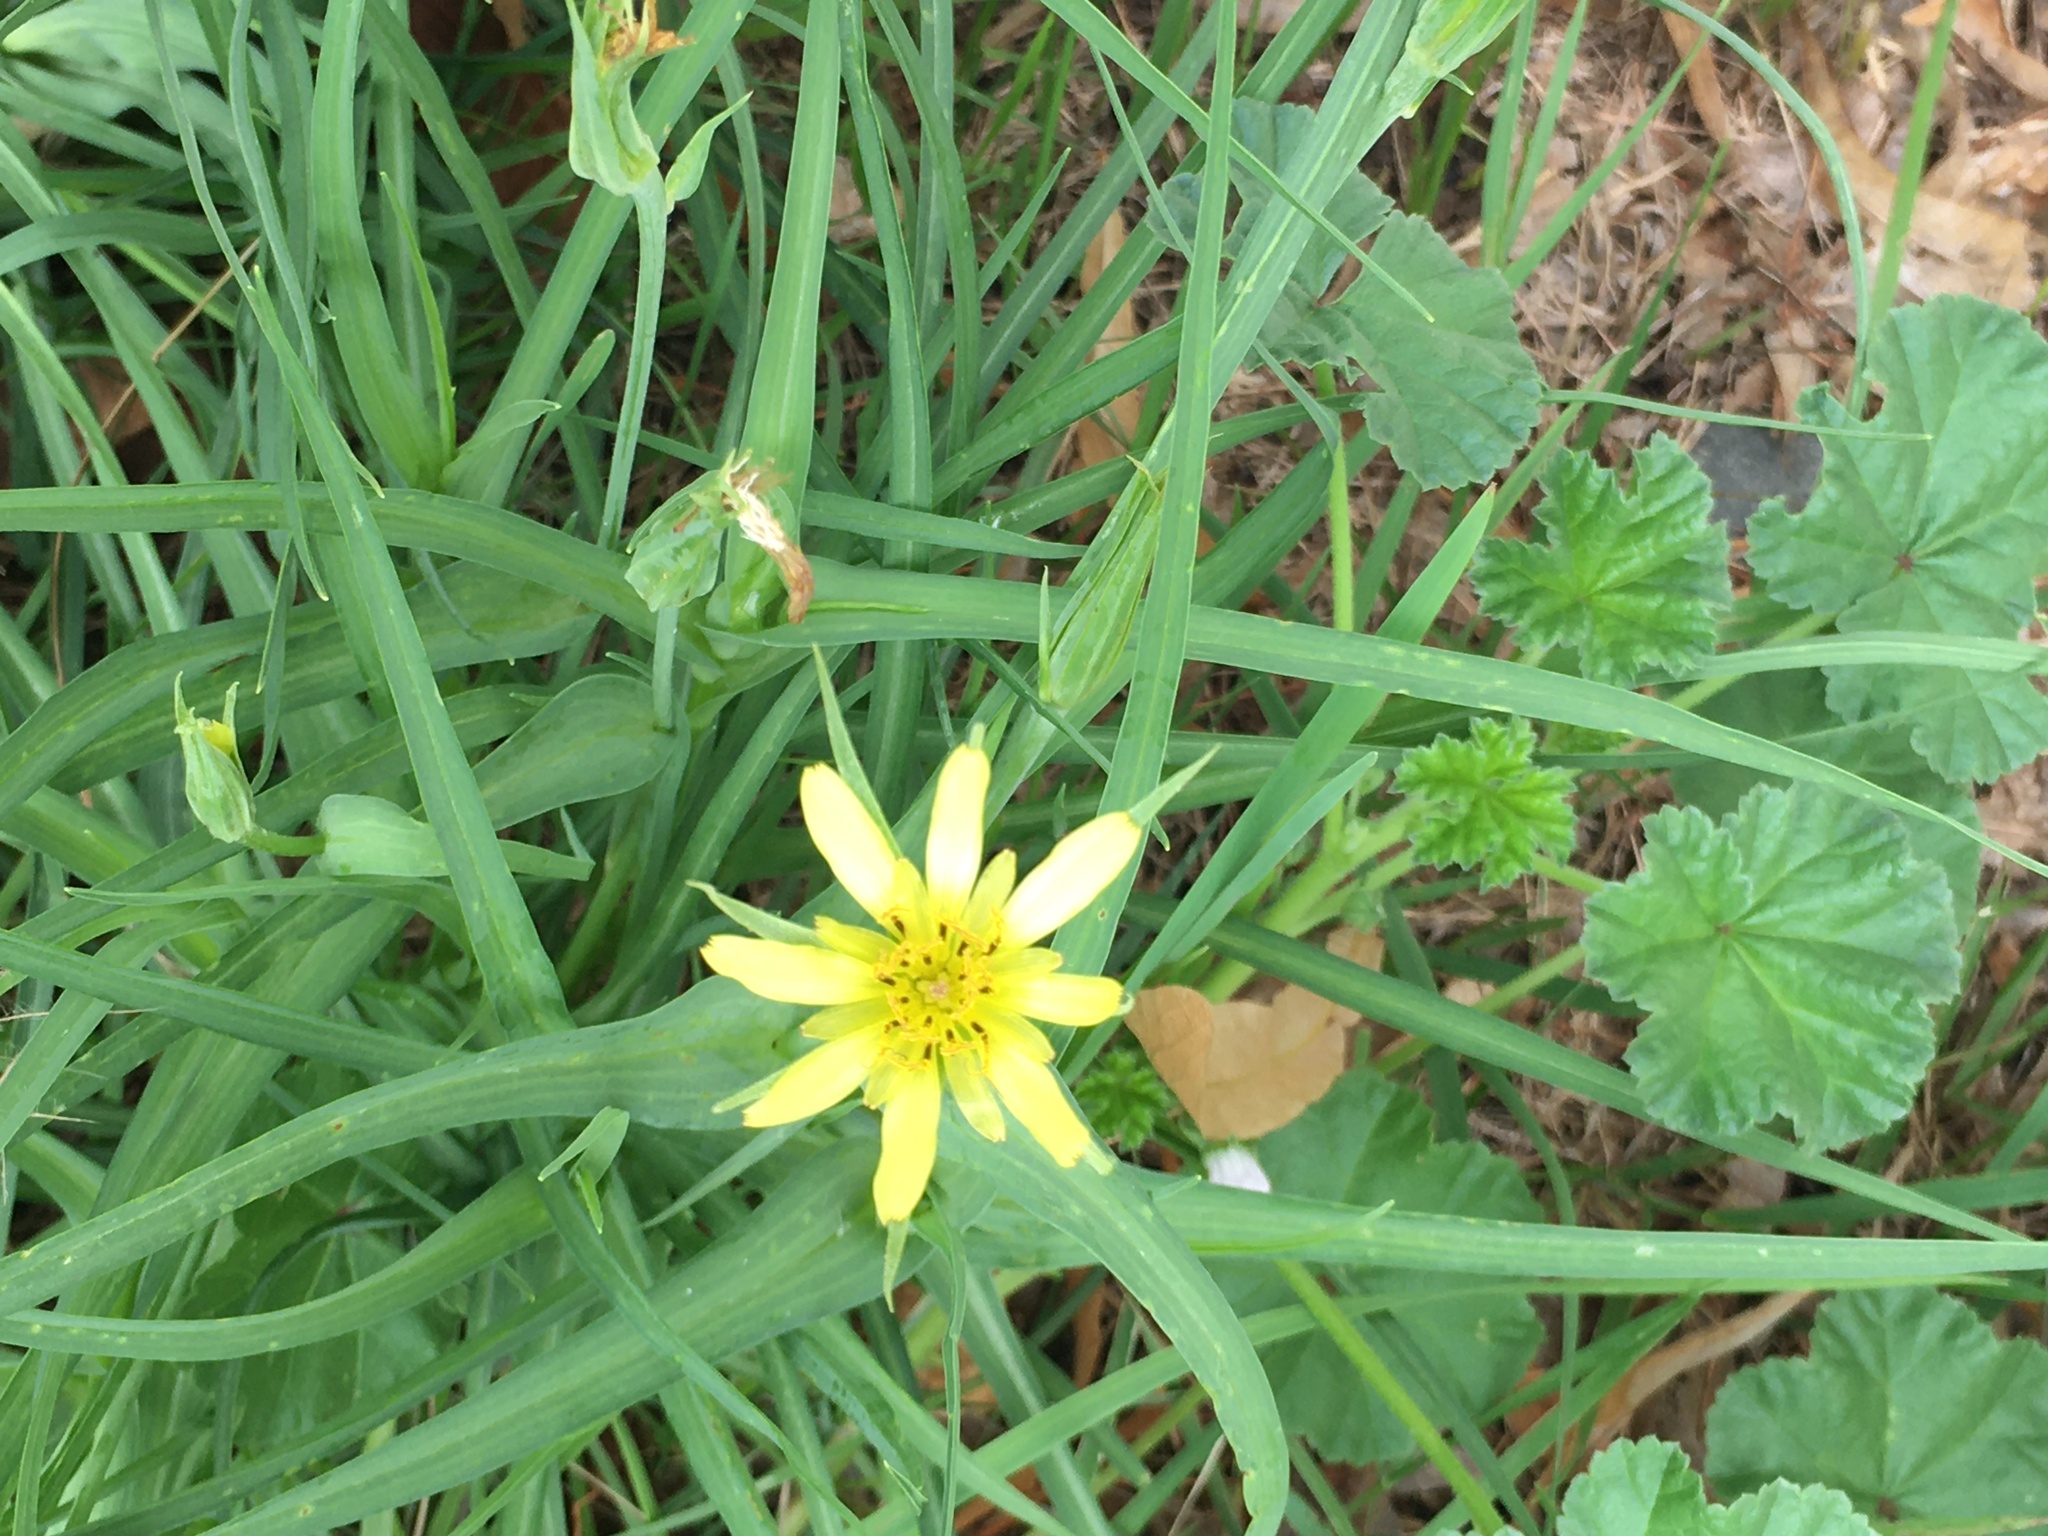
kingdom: Plantae
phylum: Tracheophyta
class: Magnoliopsida
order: Asterales
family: Asteraceae
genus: Tragopogon
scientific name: Tragopogon dubius
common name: Yellow salsify
